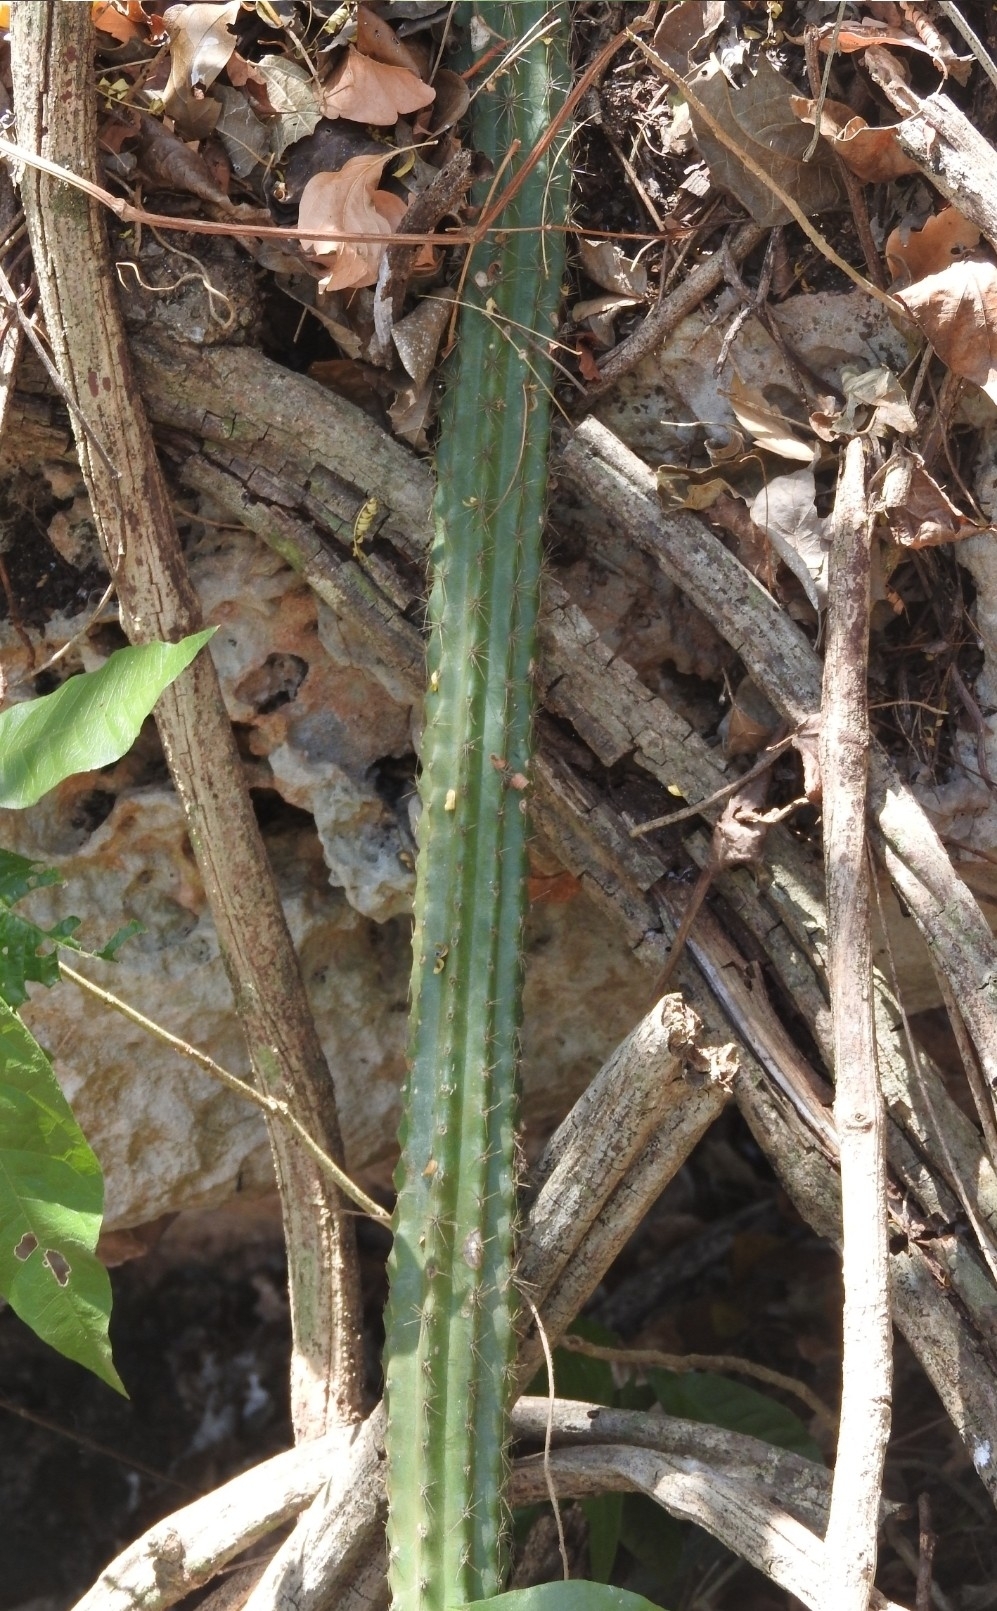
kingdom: Plantae
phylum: Tracheophyta
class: Magnoliopsida
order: Caryophyllales
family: Cactaceae
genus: Selenicereus
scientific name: Selenicereus grandiflorus
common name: Queen of the night
